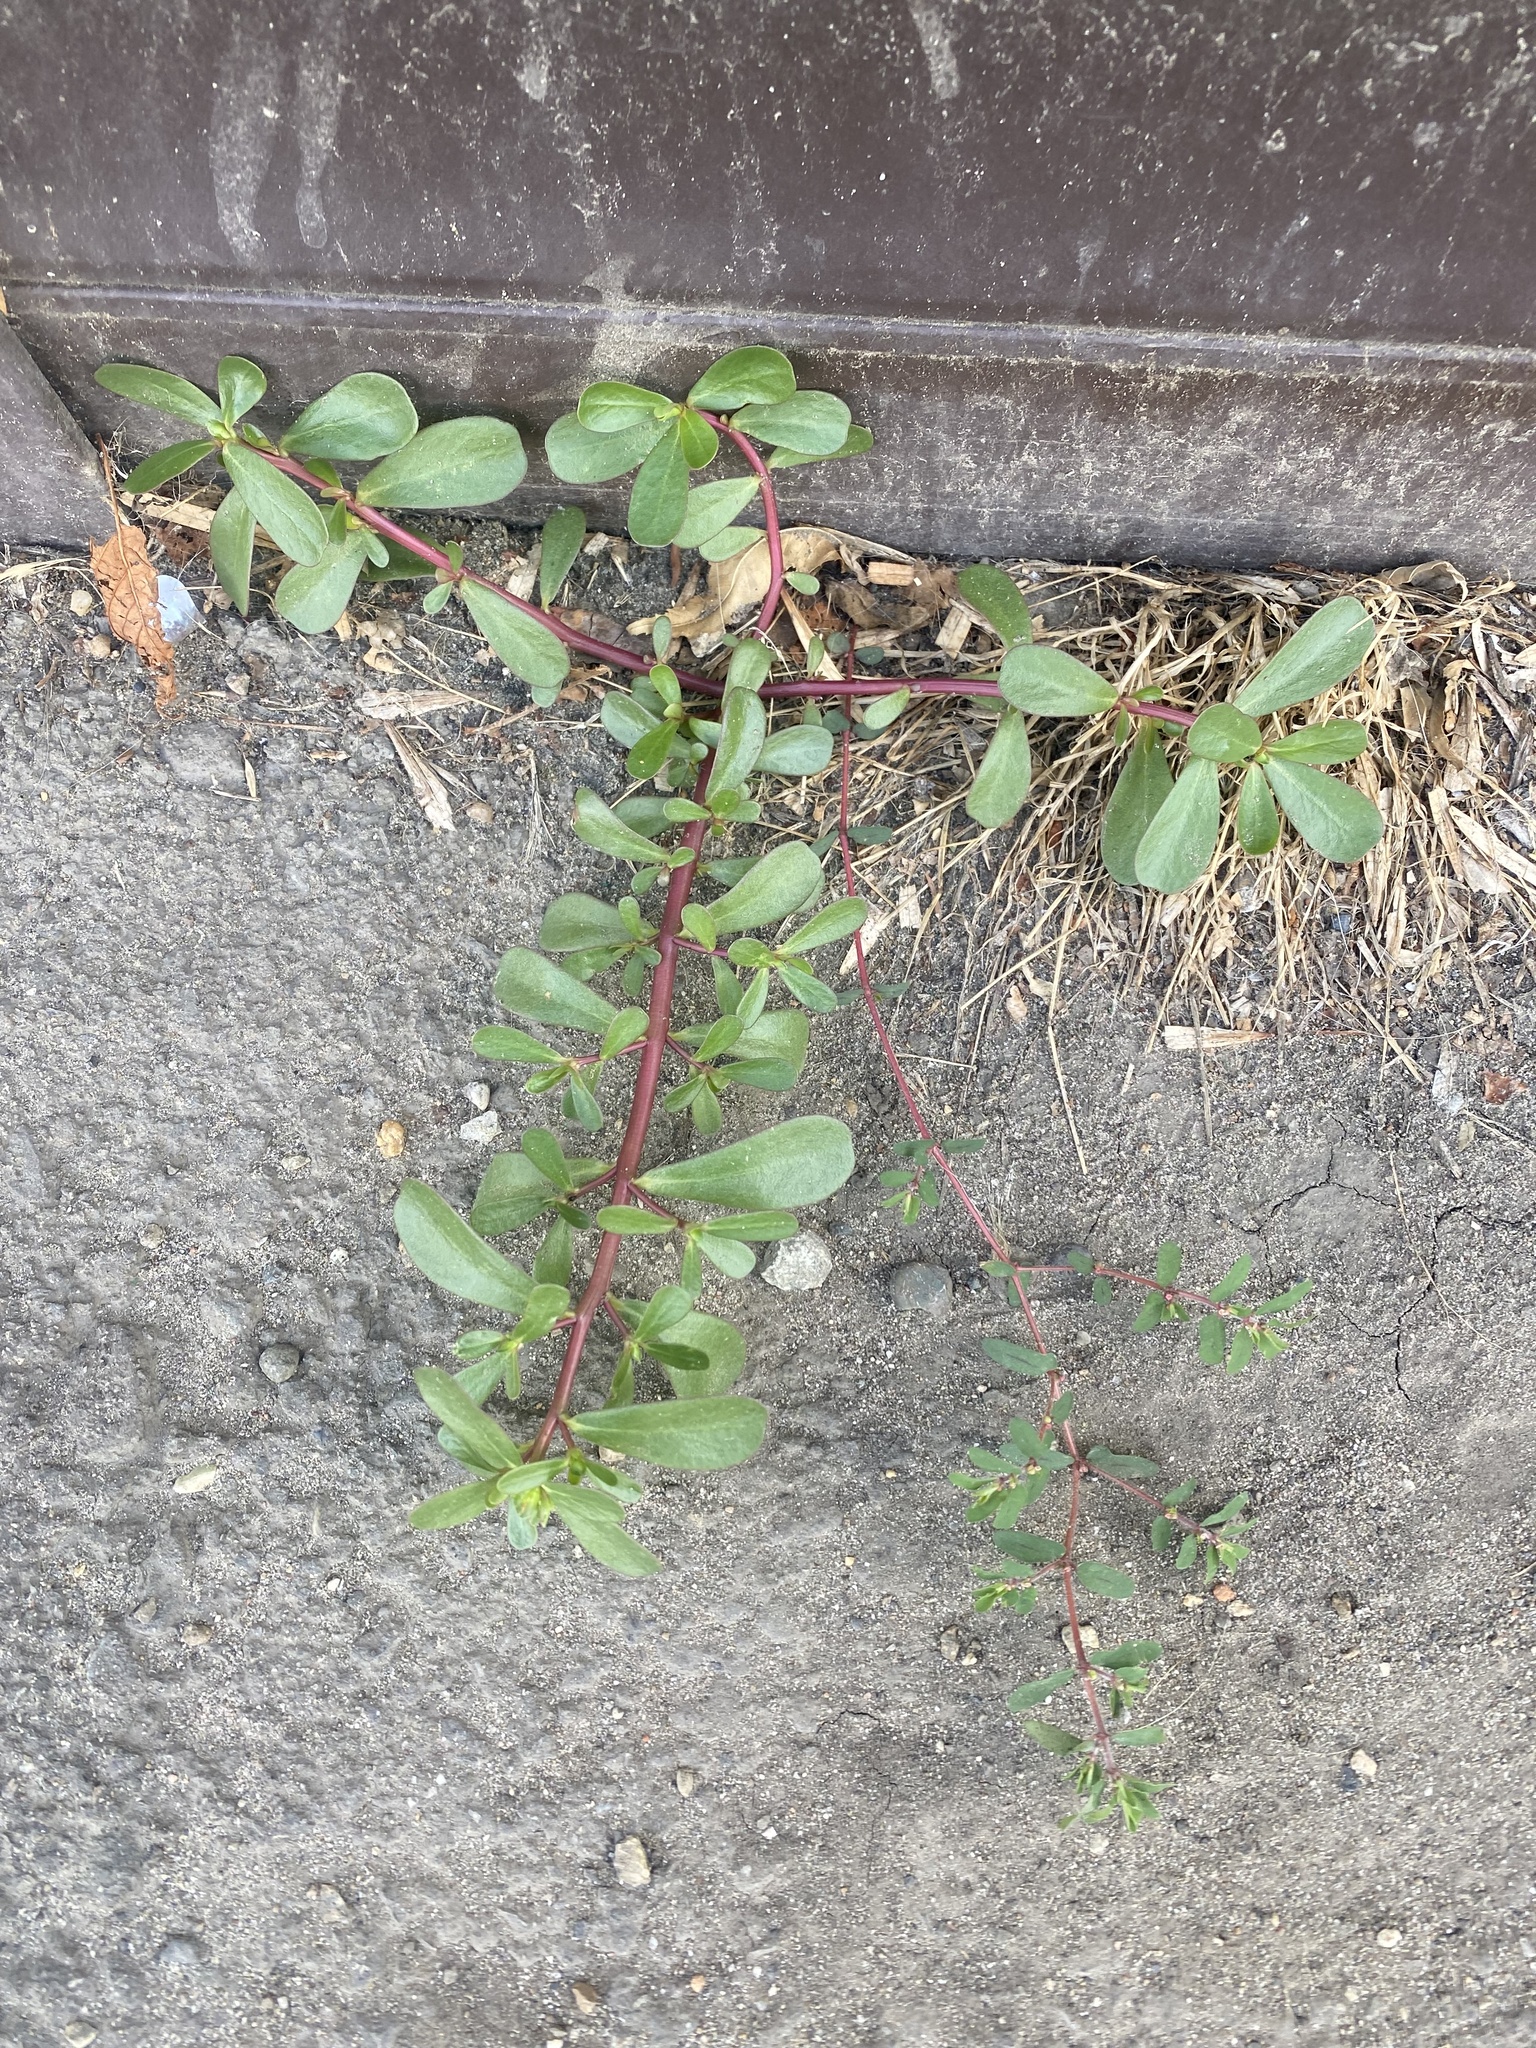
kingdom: Plantae
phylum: Tracheophyta
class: Magnoliopsida
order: Caryophyllales
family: Portulacaceae
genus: Portulaca
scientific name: Portulaca oleracea
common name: Common purslane
